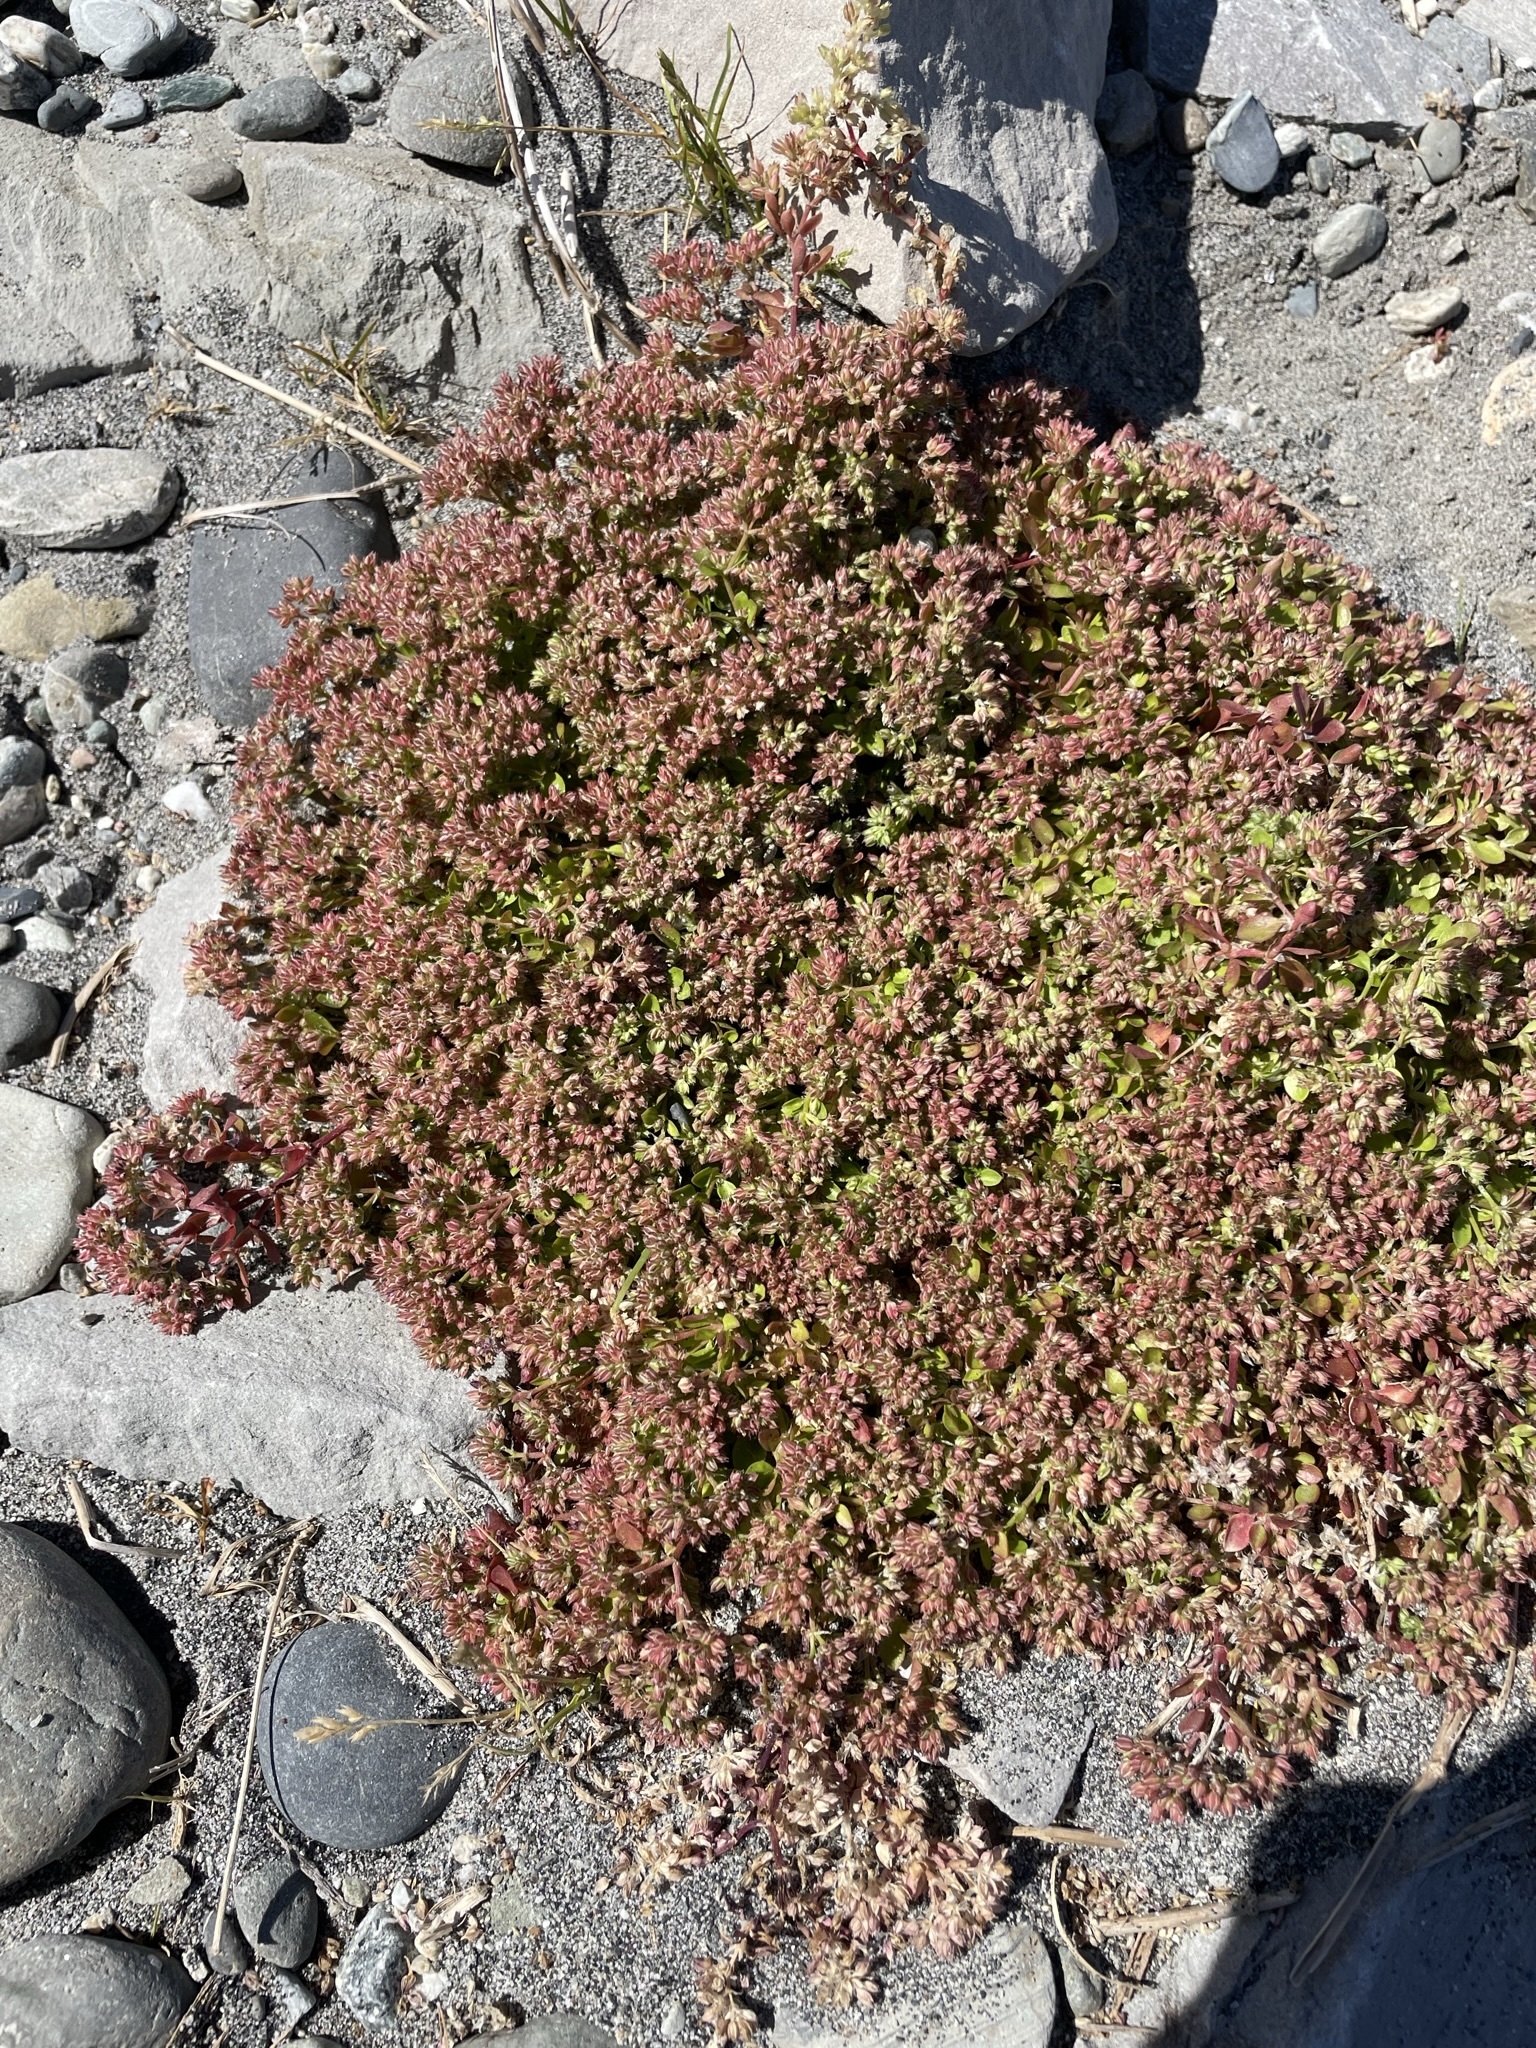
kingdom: Plantae
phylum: Tracheophyta
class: Magnoliopsida
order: Caryophyllales
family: Caryophyllaceae
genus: Polycarpon
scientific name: Polycarpon tetraphyllum
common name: Four-leaved all-seed
